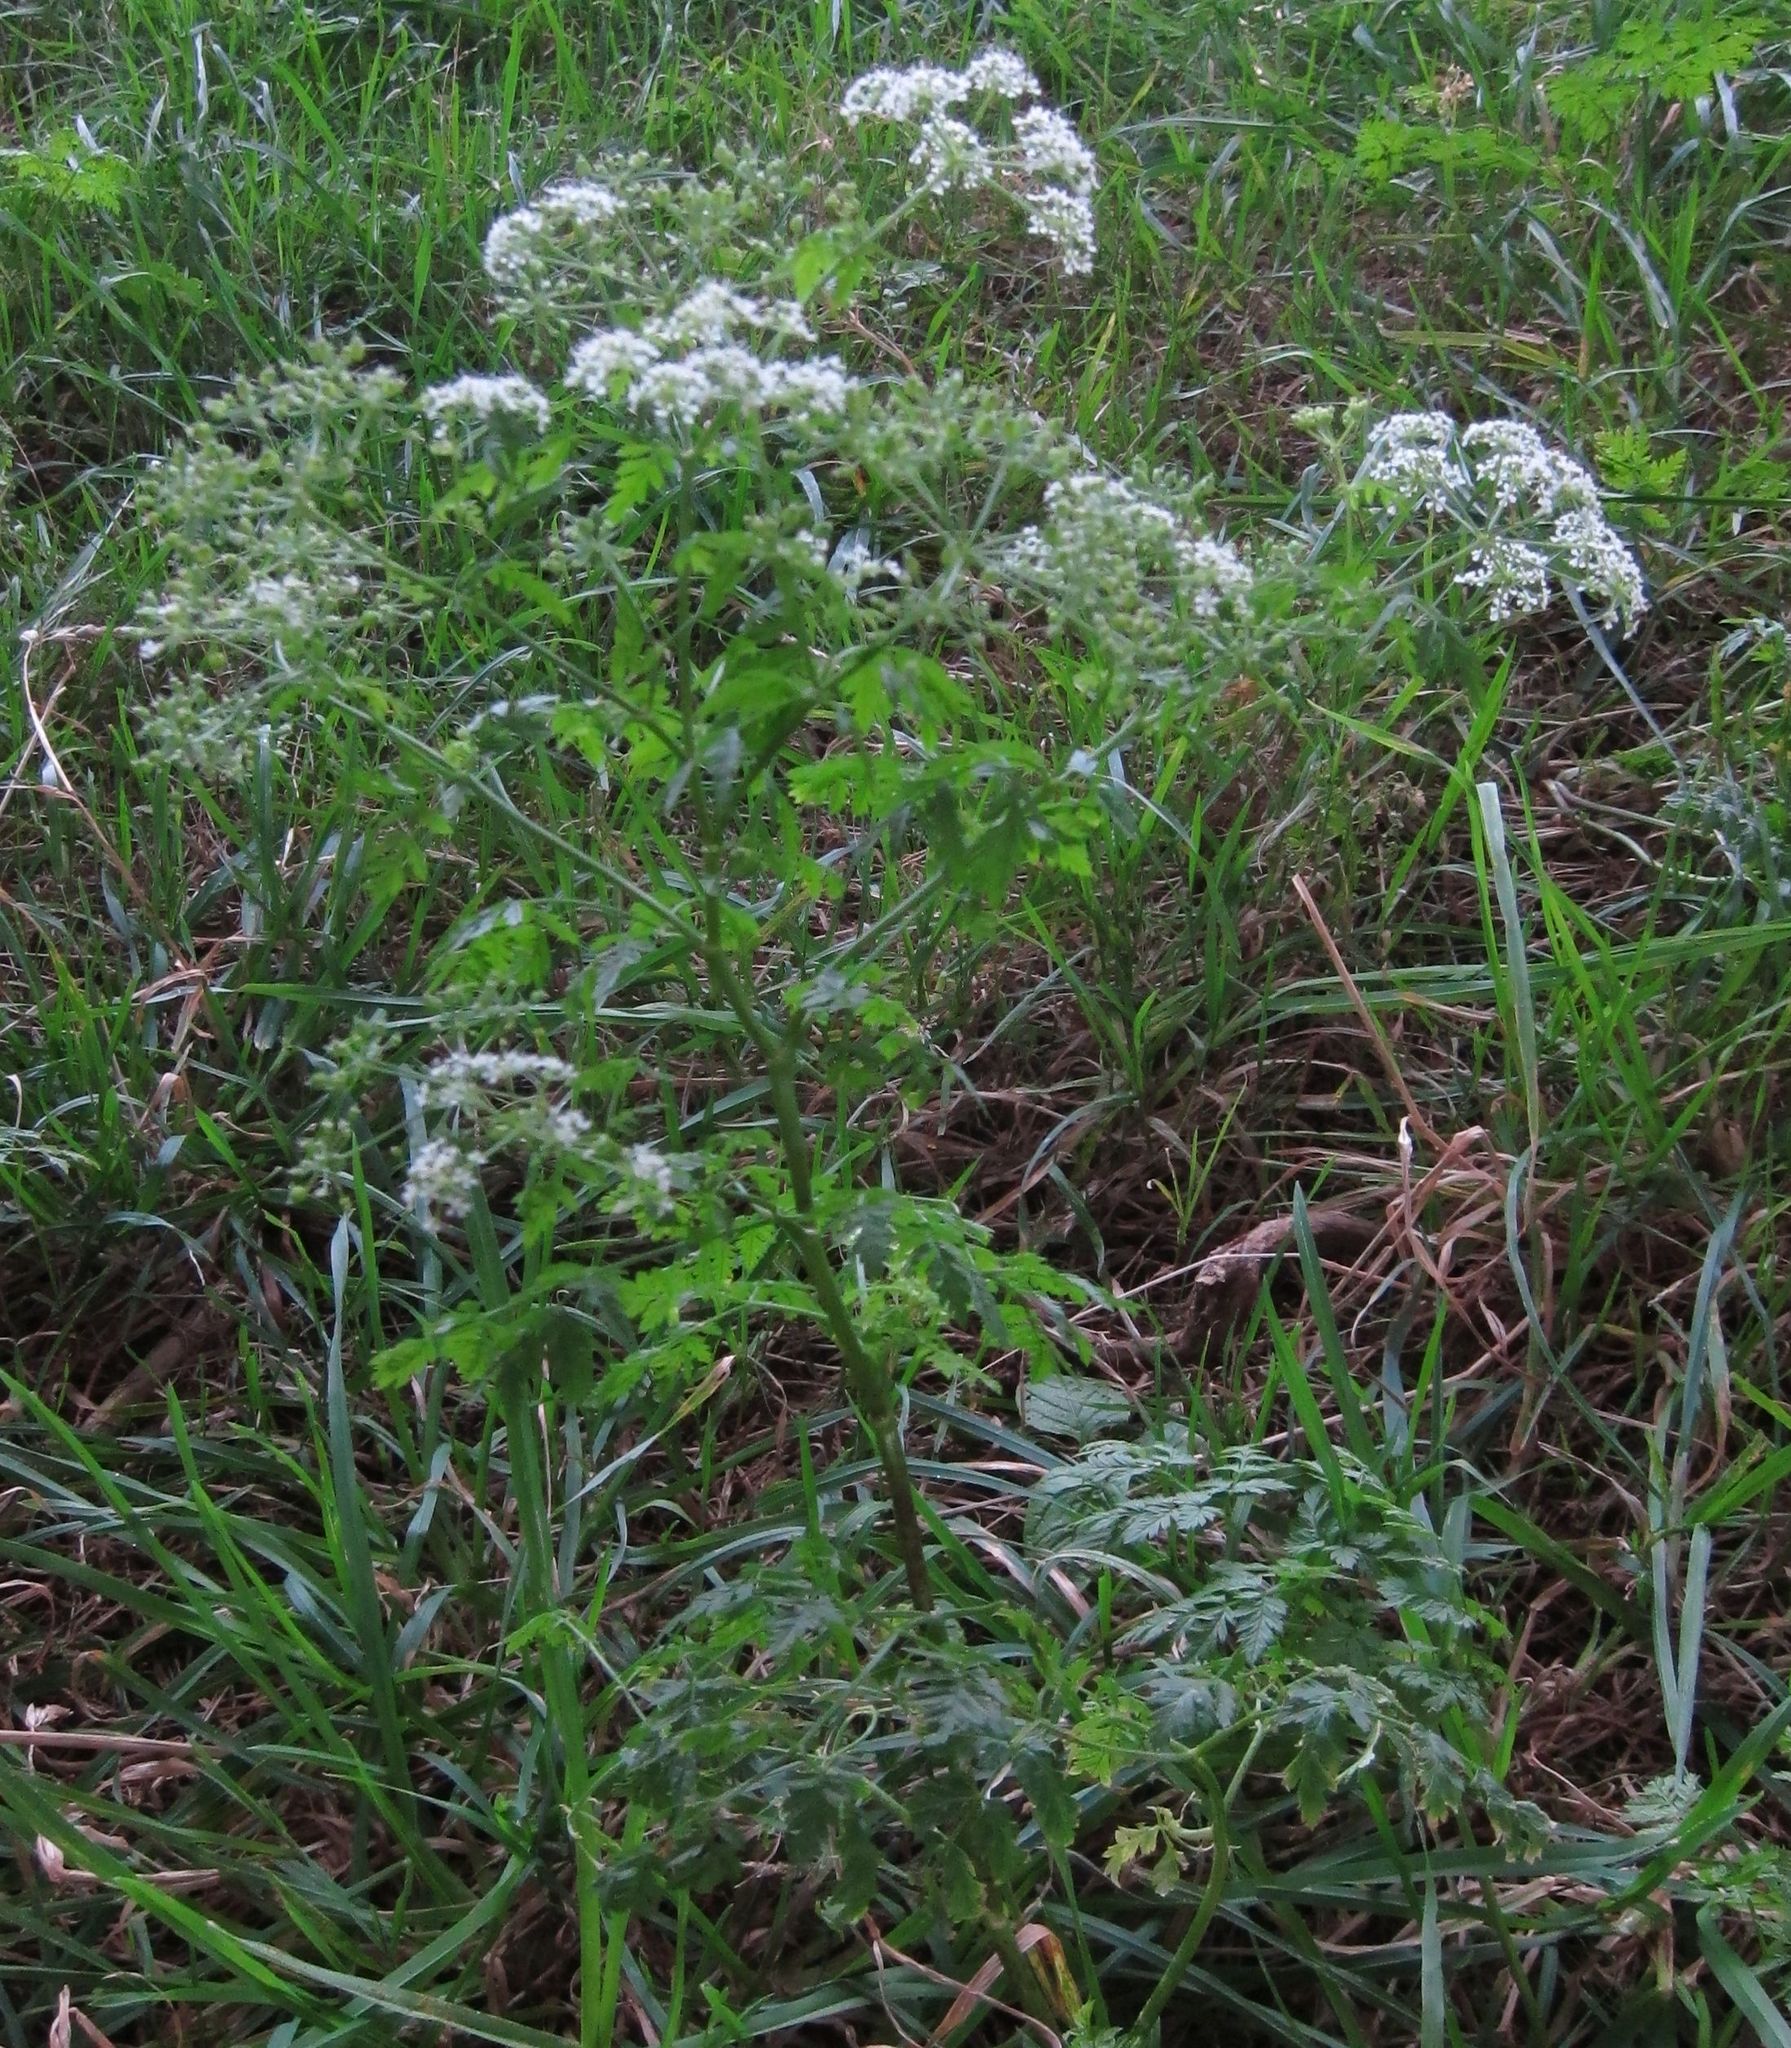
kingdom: Plantae
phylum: Tracheophyta
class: Magnoliopsida
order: Apiales
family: Apiaceae
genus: Conium
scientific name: Conium maculatum
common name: Hemlock
